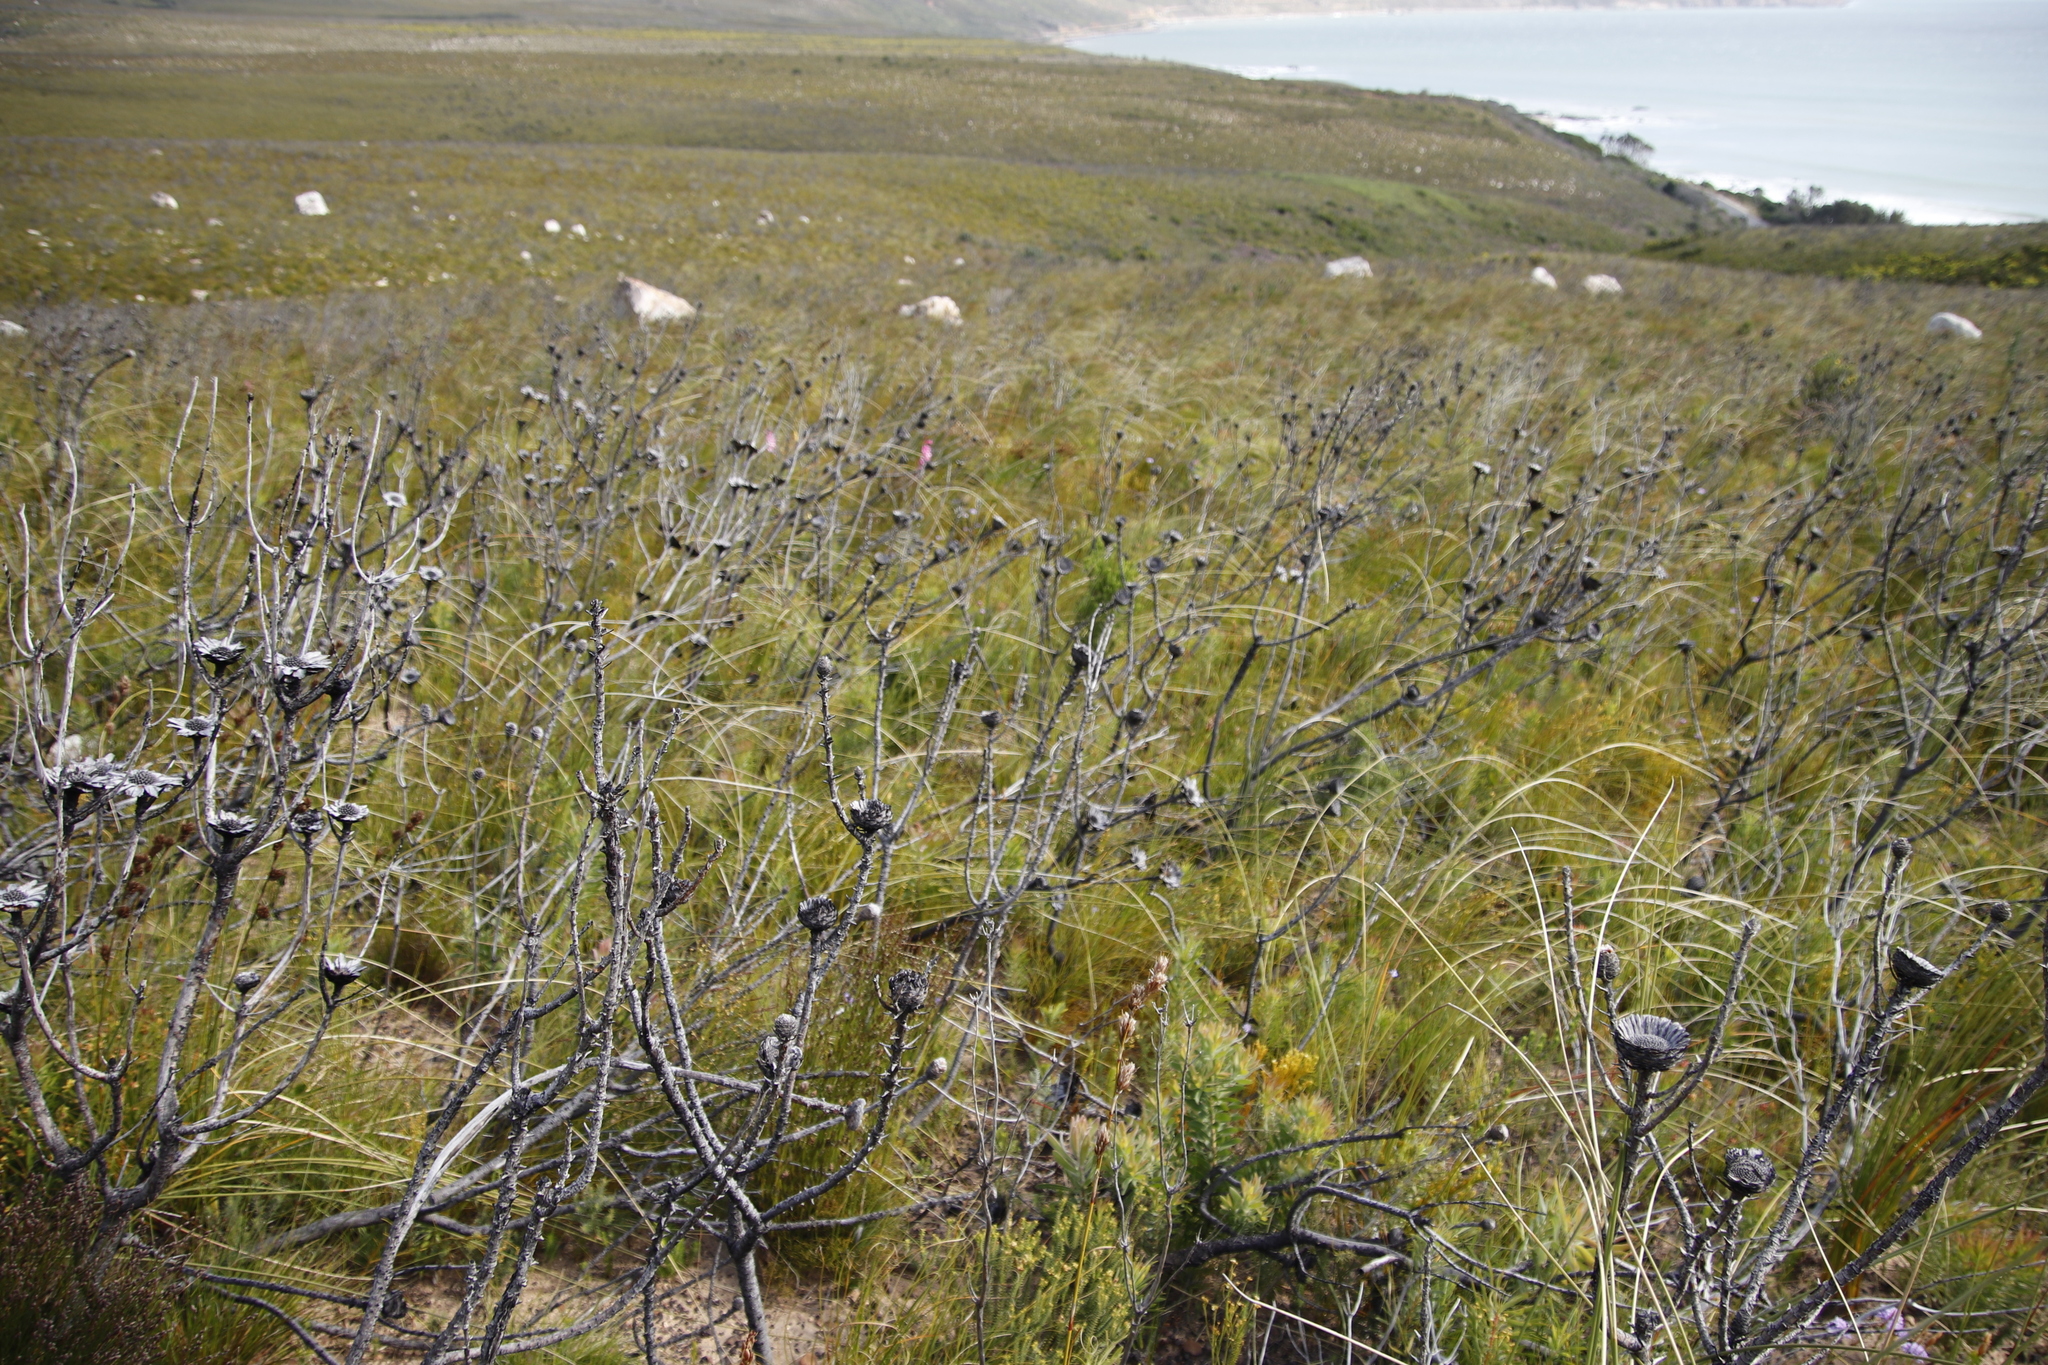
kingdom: Plantae
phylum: Tracheophyta
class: Magnoliopsida
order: Proteales
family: Proteaceae
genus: Protea
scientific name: Protea repens
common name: Sugarbush
